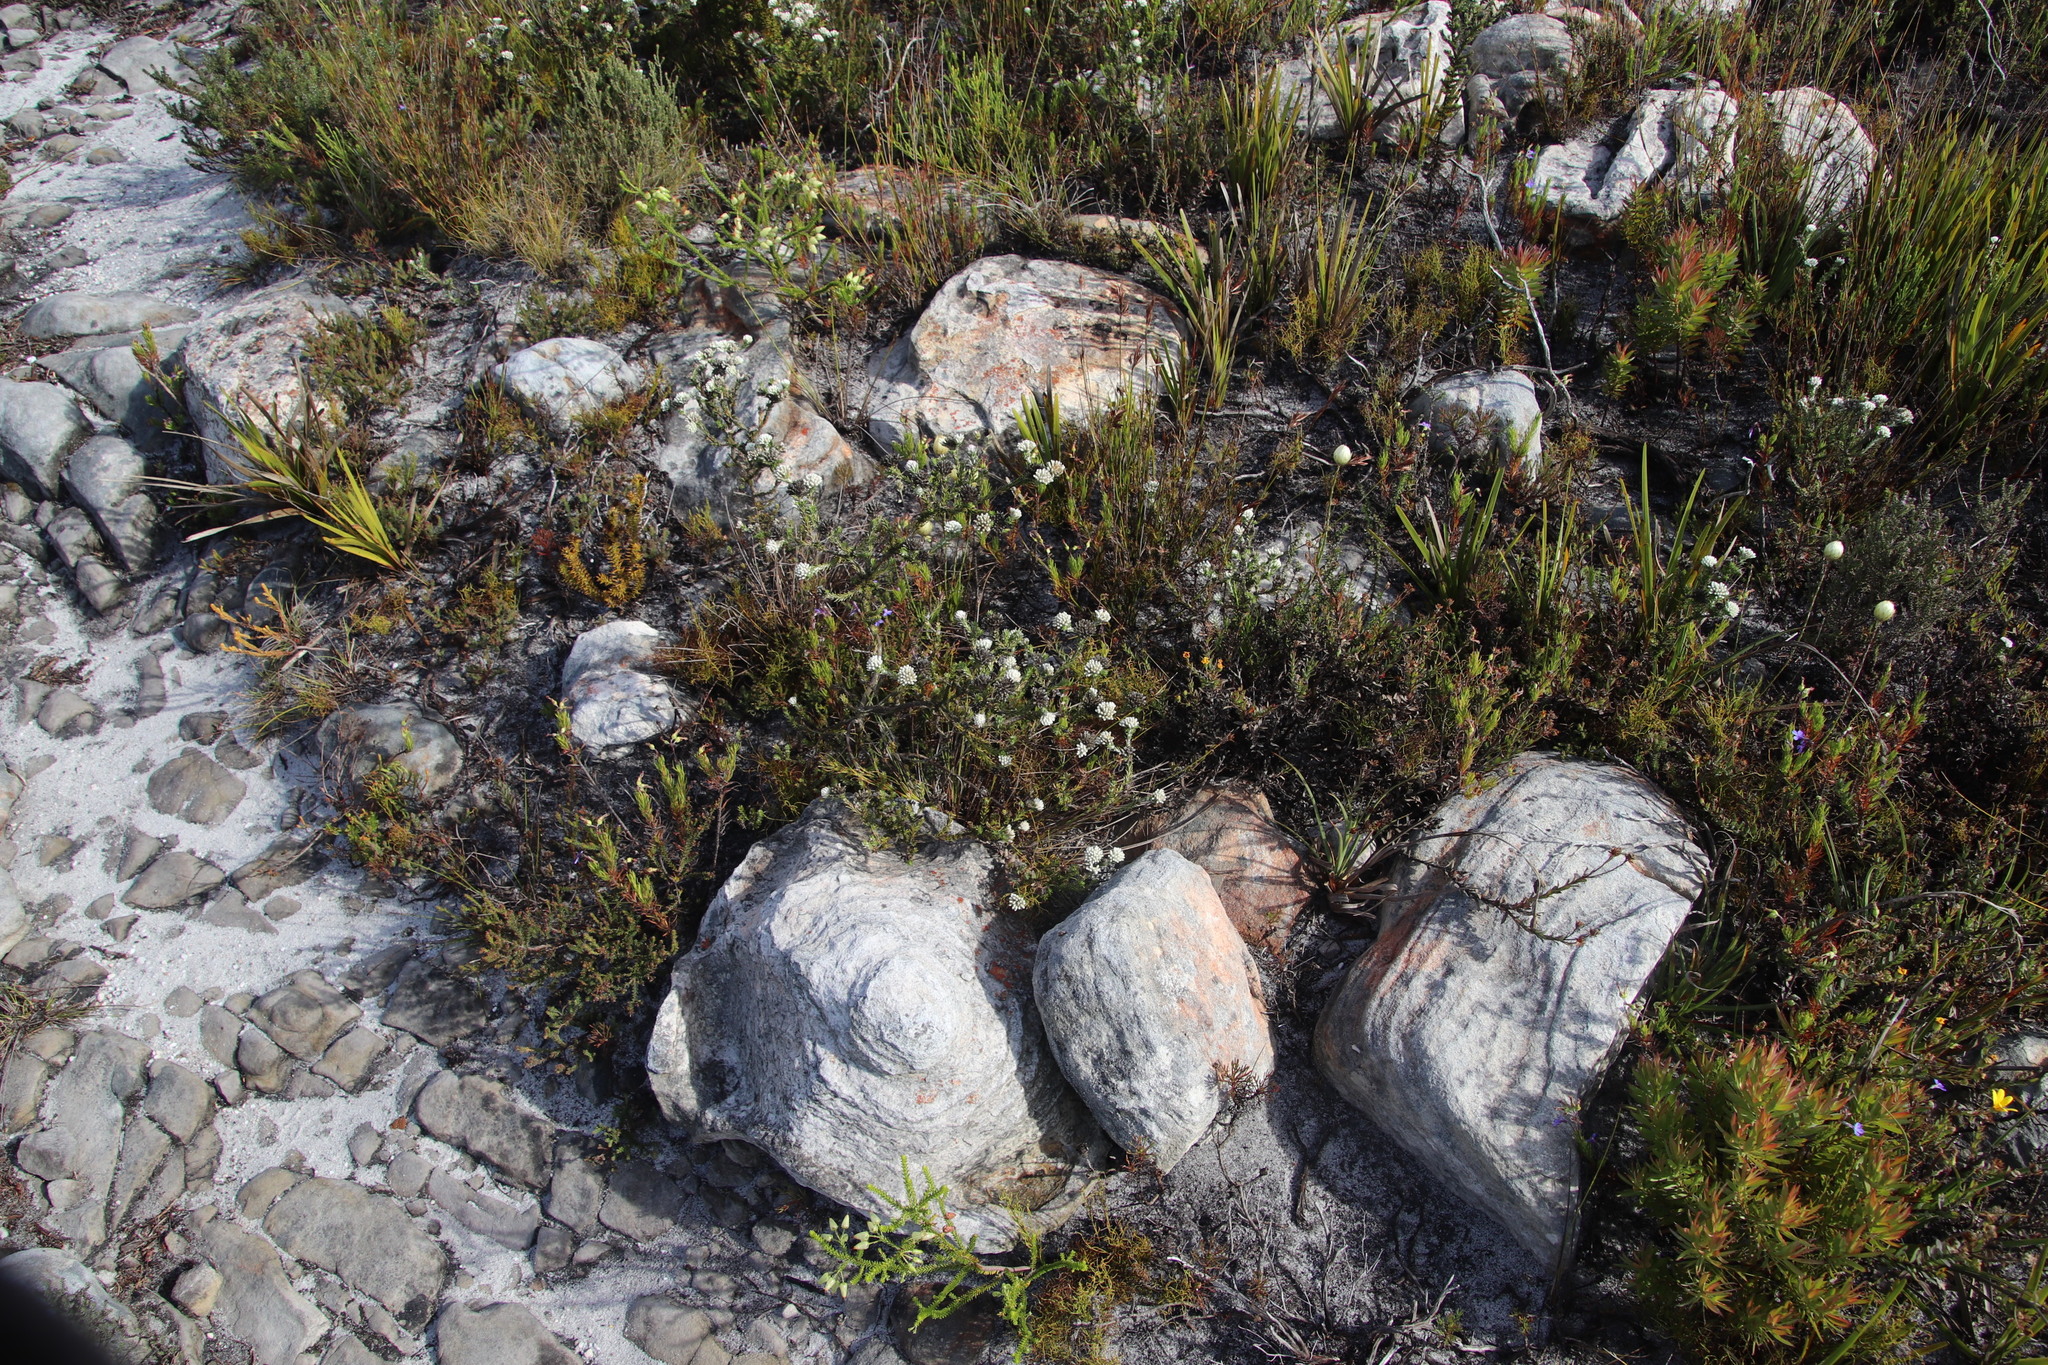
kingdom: Plantae
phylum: Tracheophyta
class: Magnoliopsida
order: Asterales
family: Asteraceae
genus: Metalasia
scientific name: Metalasia compacta
